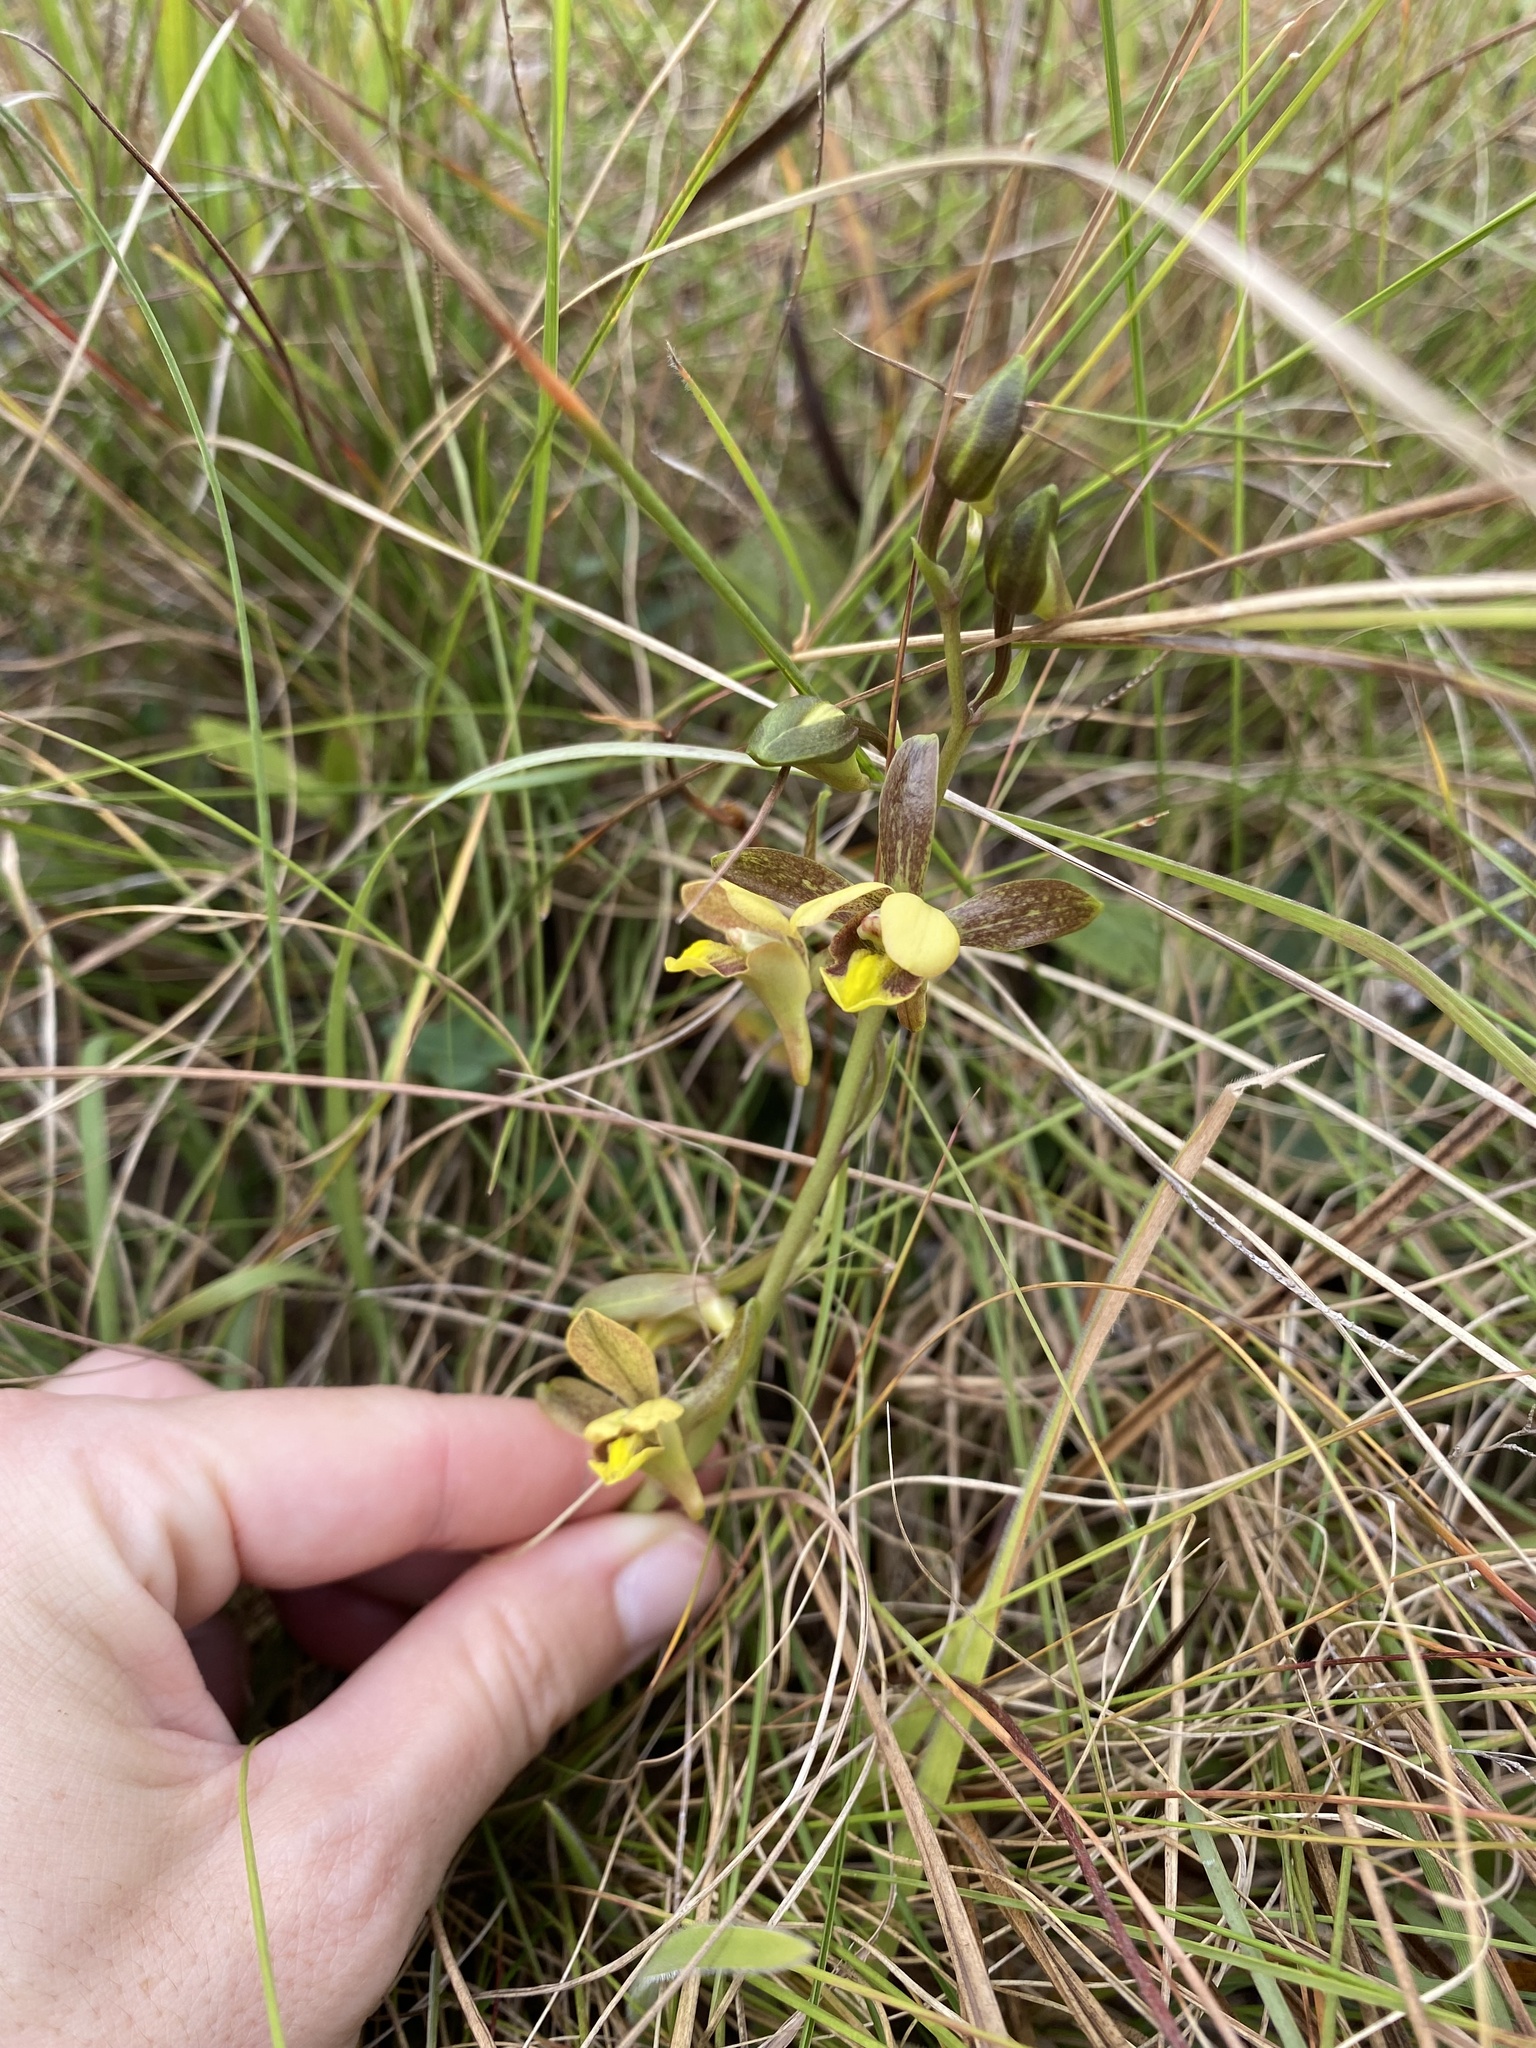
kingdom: Plantae
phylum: Tracheophyta
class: Liliopsida
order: Asparagales
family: Orchidaceae
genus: Eulophia
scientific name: Eulophia parviflora
